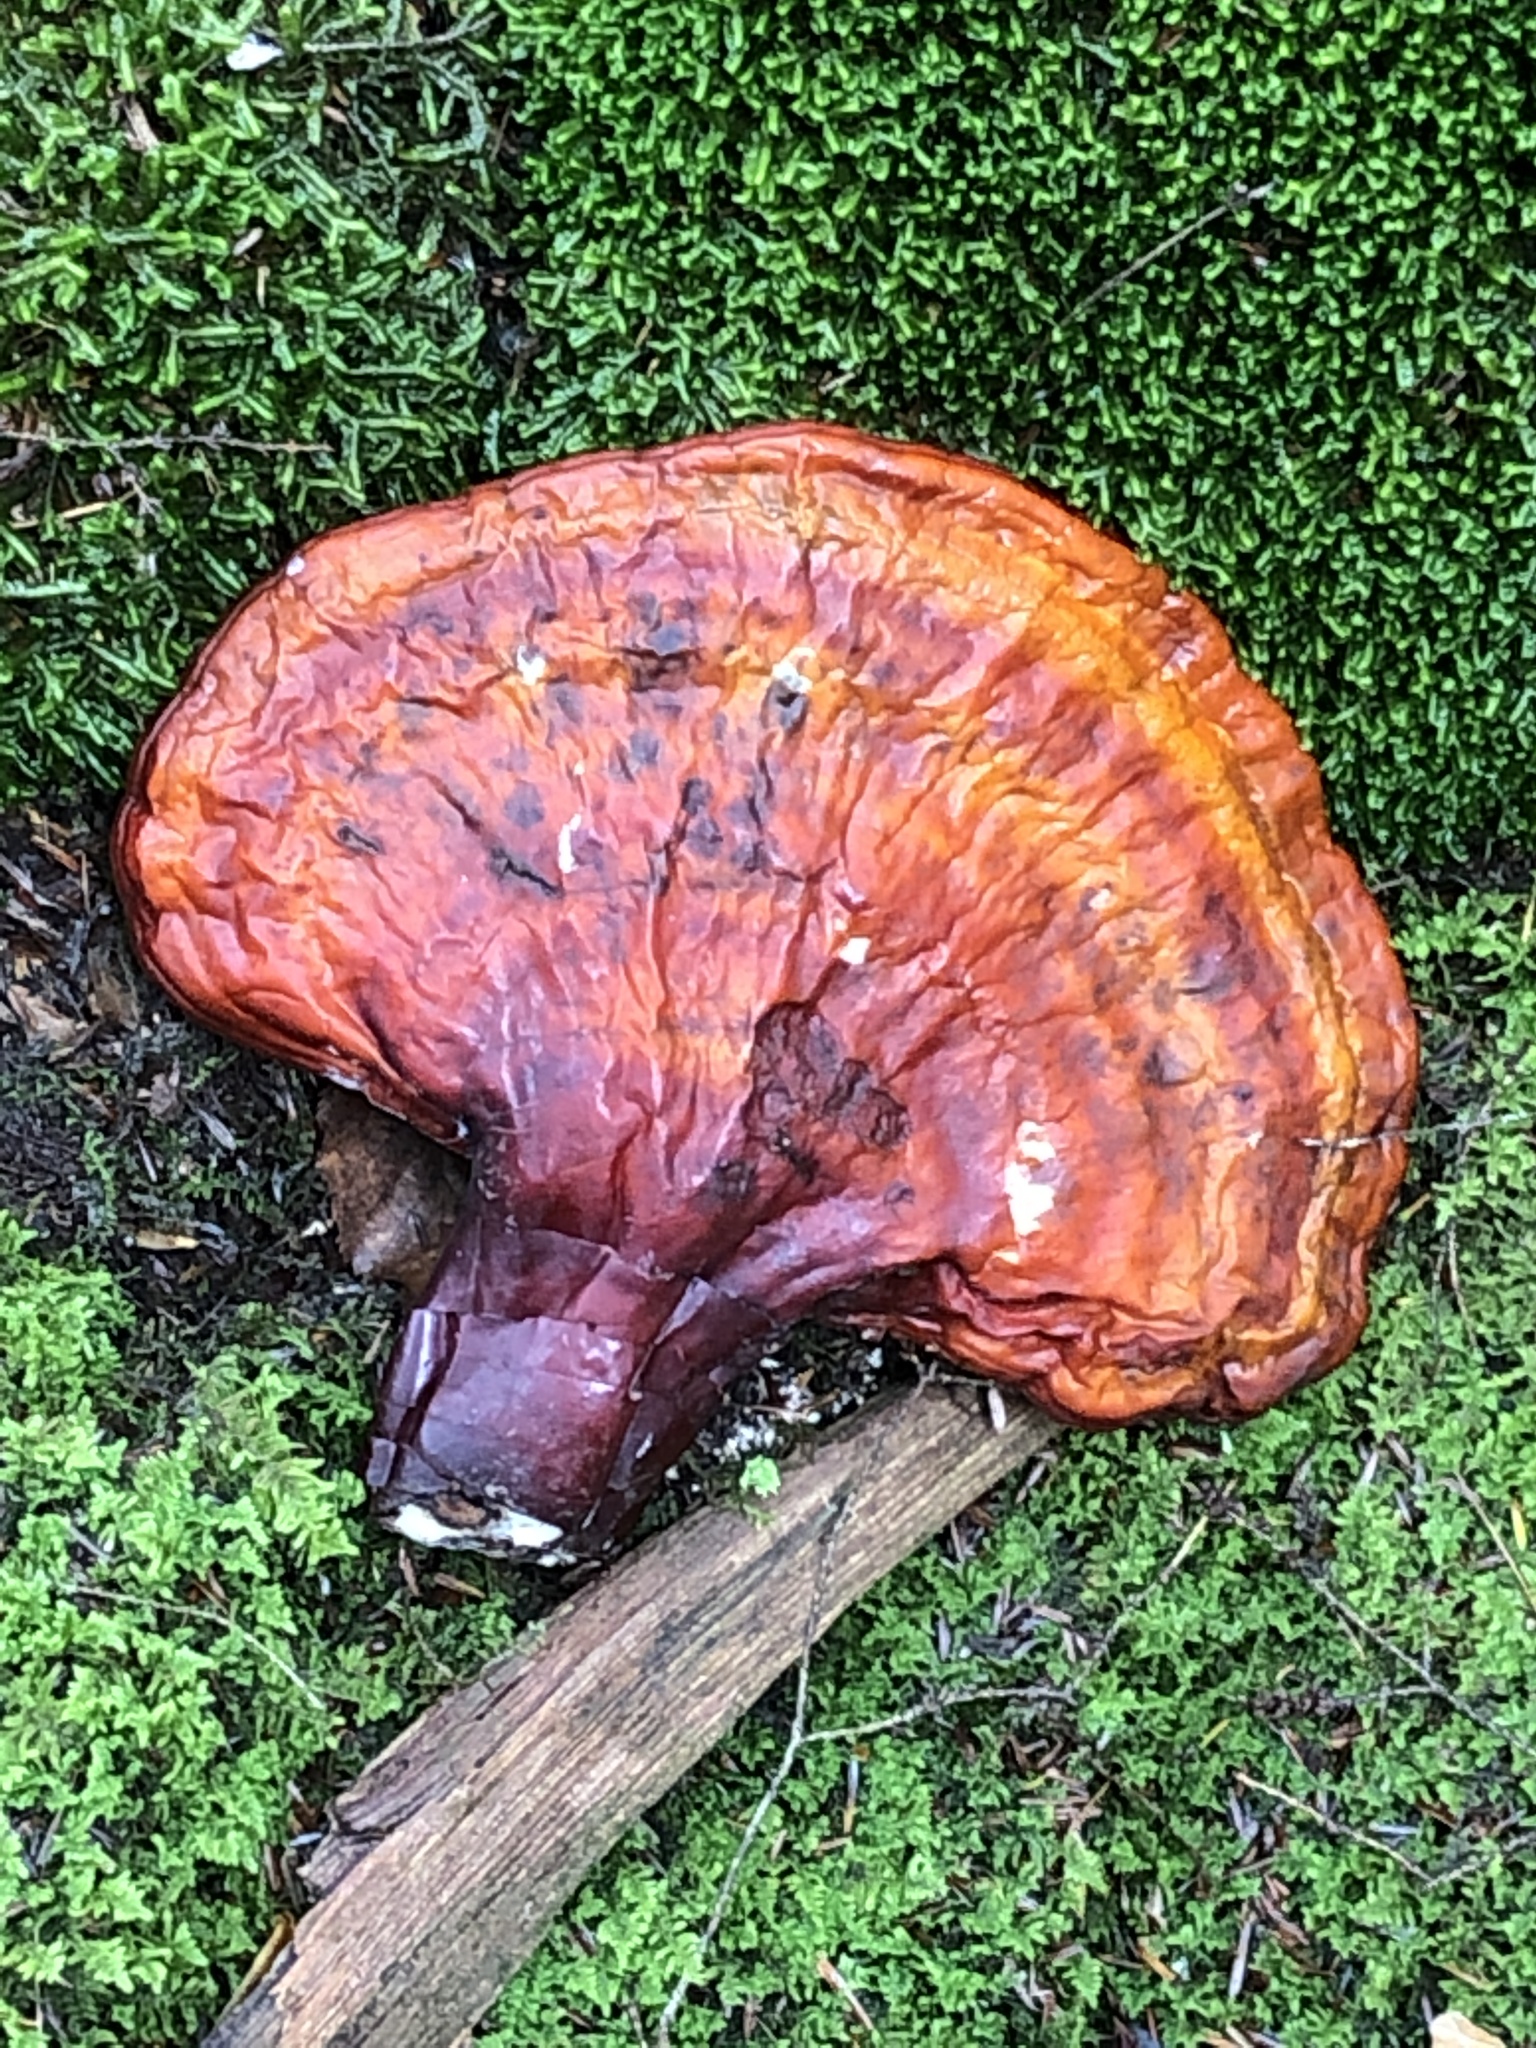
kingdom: Fungi
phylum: Basidiomycota
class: Agaricomycetes
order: Polyporales
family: Polyporaceae
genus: Ganoderma
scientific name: Ganoderma tsugae
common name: Hemlock varnish shelf
